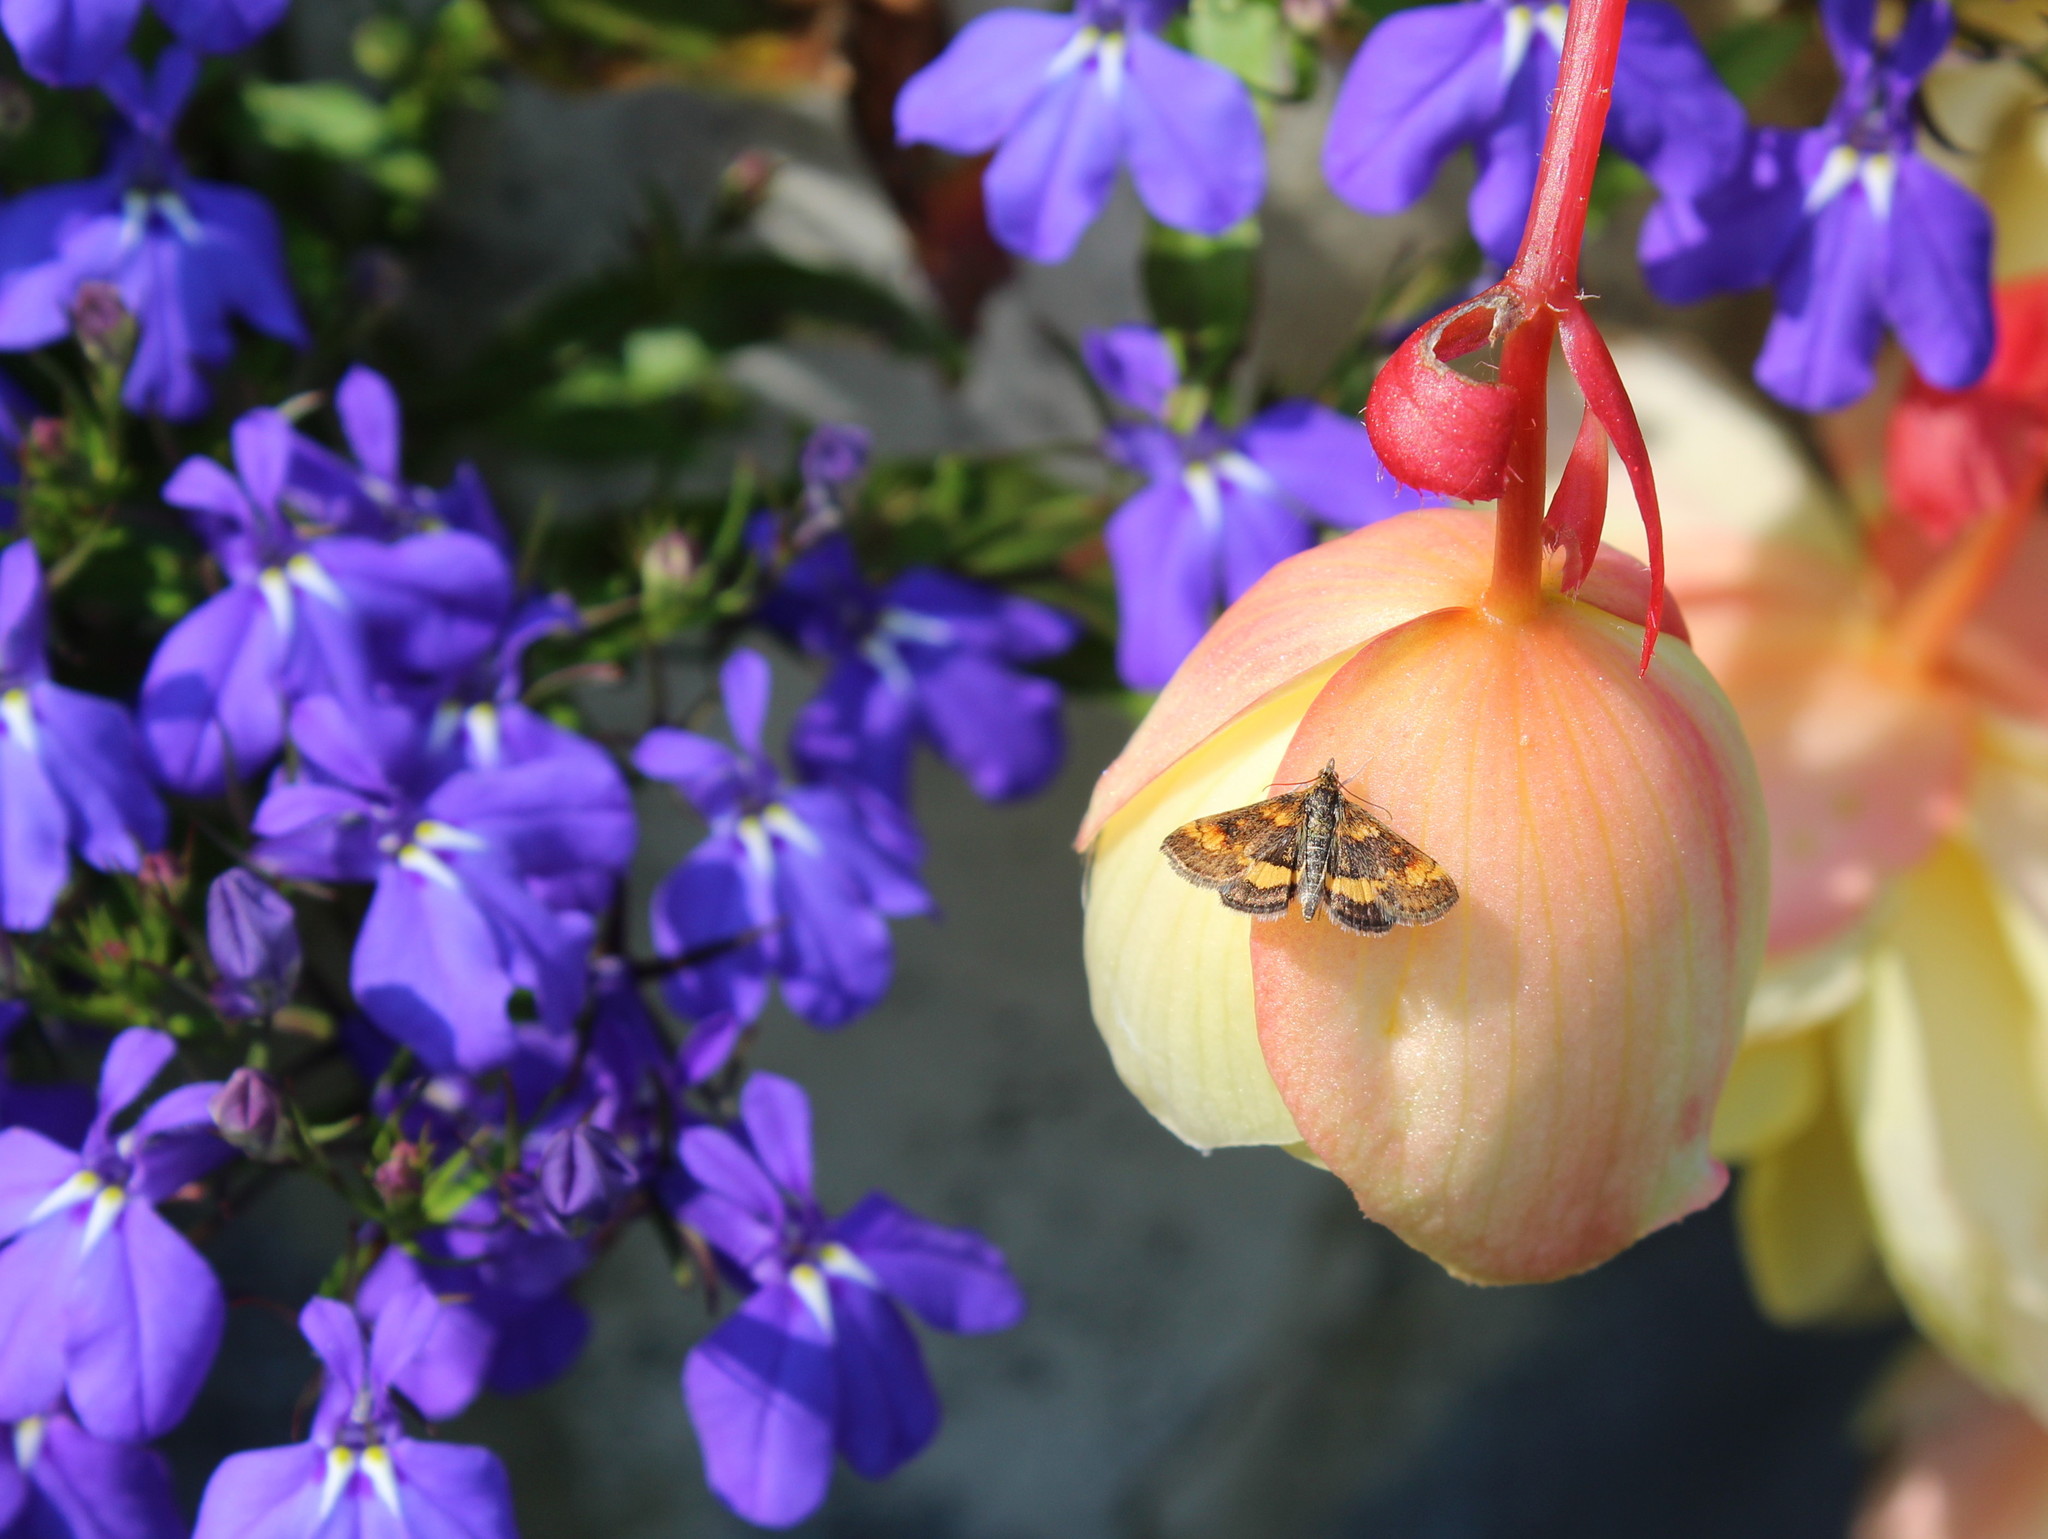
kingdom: Animalia
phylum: Arthropoda
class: Insecta
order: Lepidoptera
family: Crambidae
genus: Pyrausta
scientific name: Pyrausta orphisalis
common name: Orange mint moth
